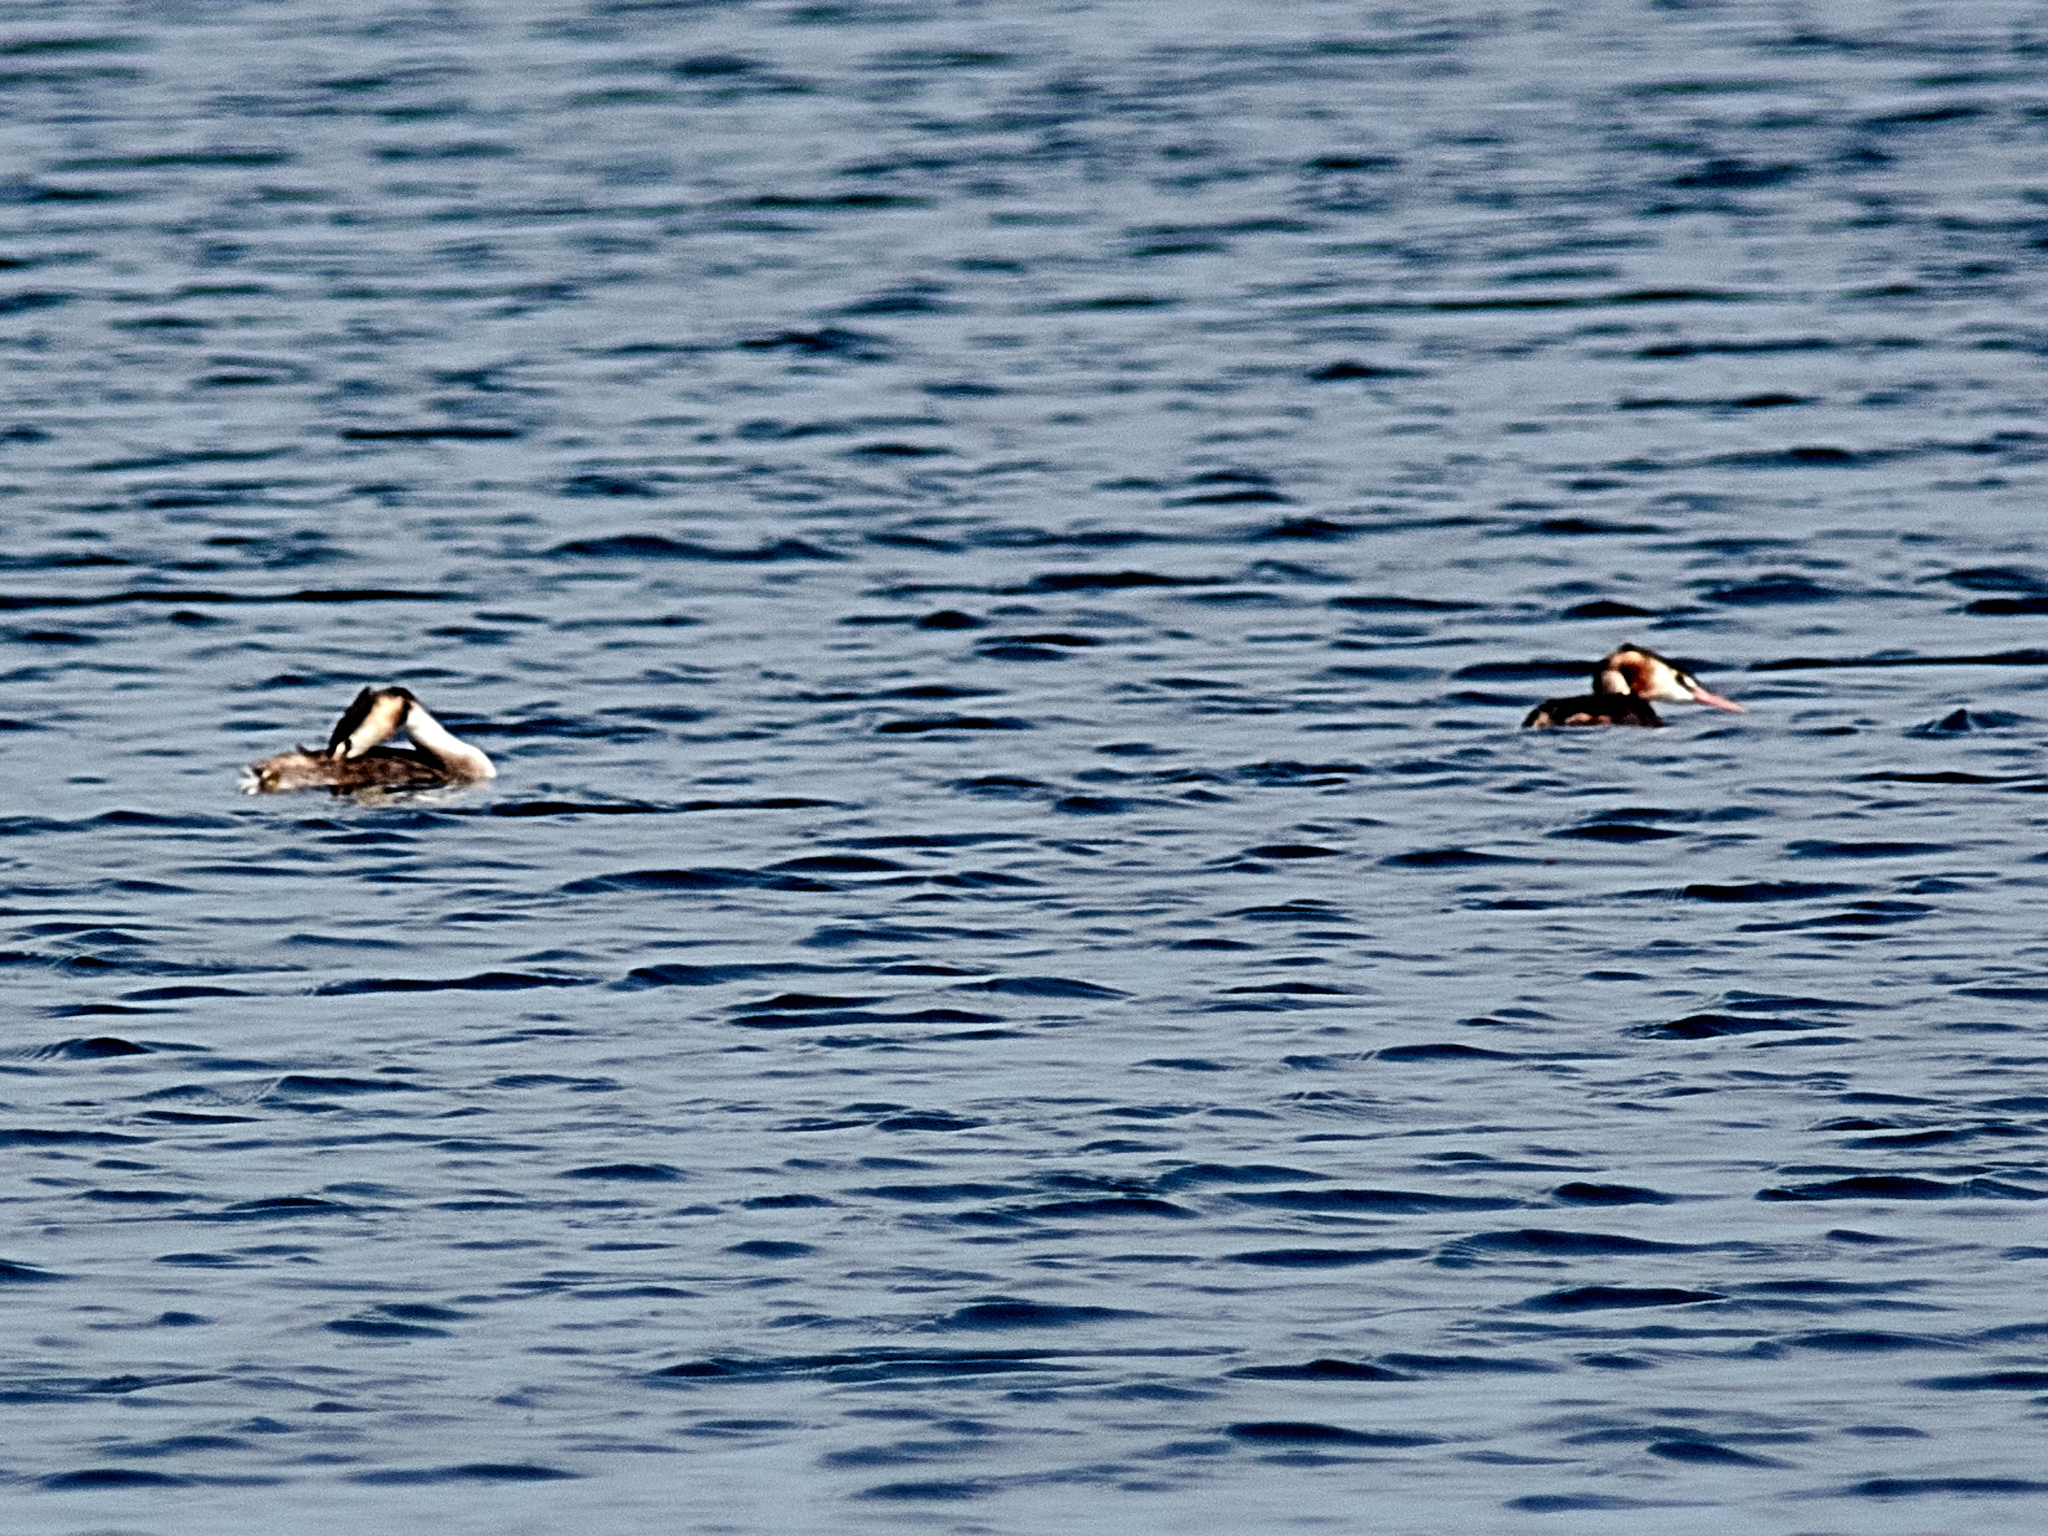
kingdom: Animalia
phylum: Chordata
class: Aves
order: Podicipediformes
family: Podicipedidae
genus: Podiceps
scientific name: Podiceps cristatus
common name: Great crested grebe
